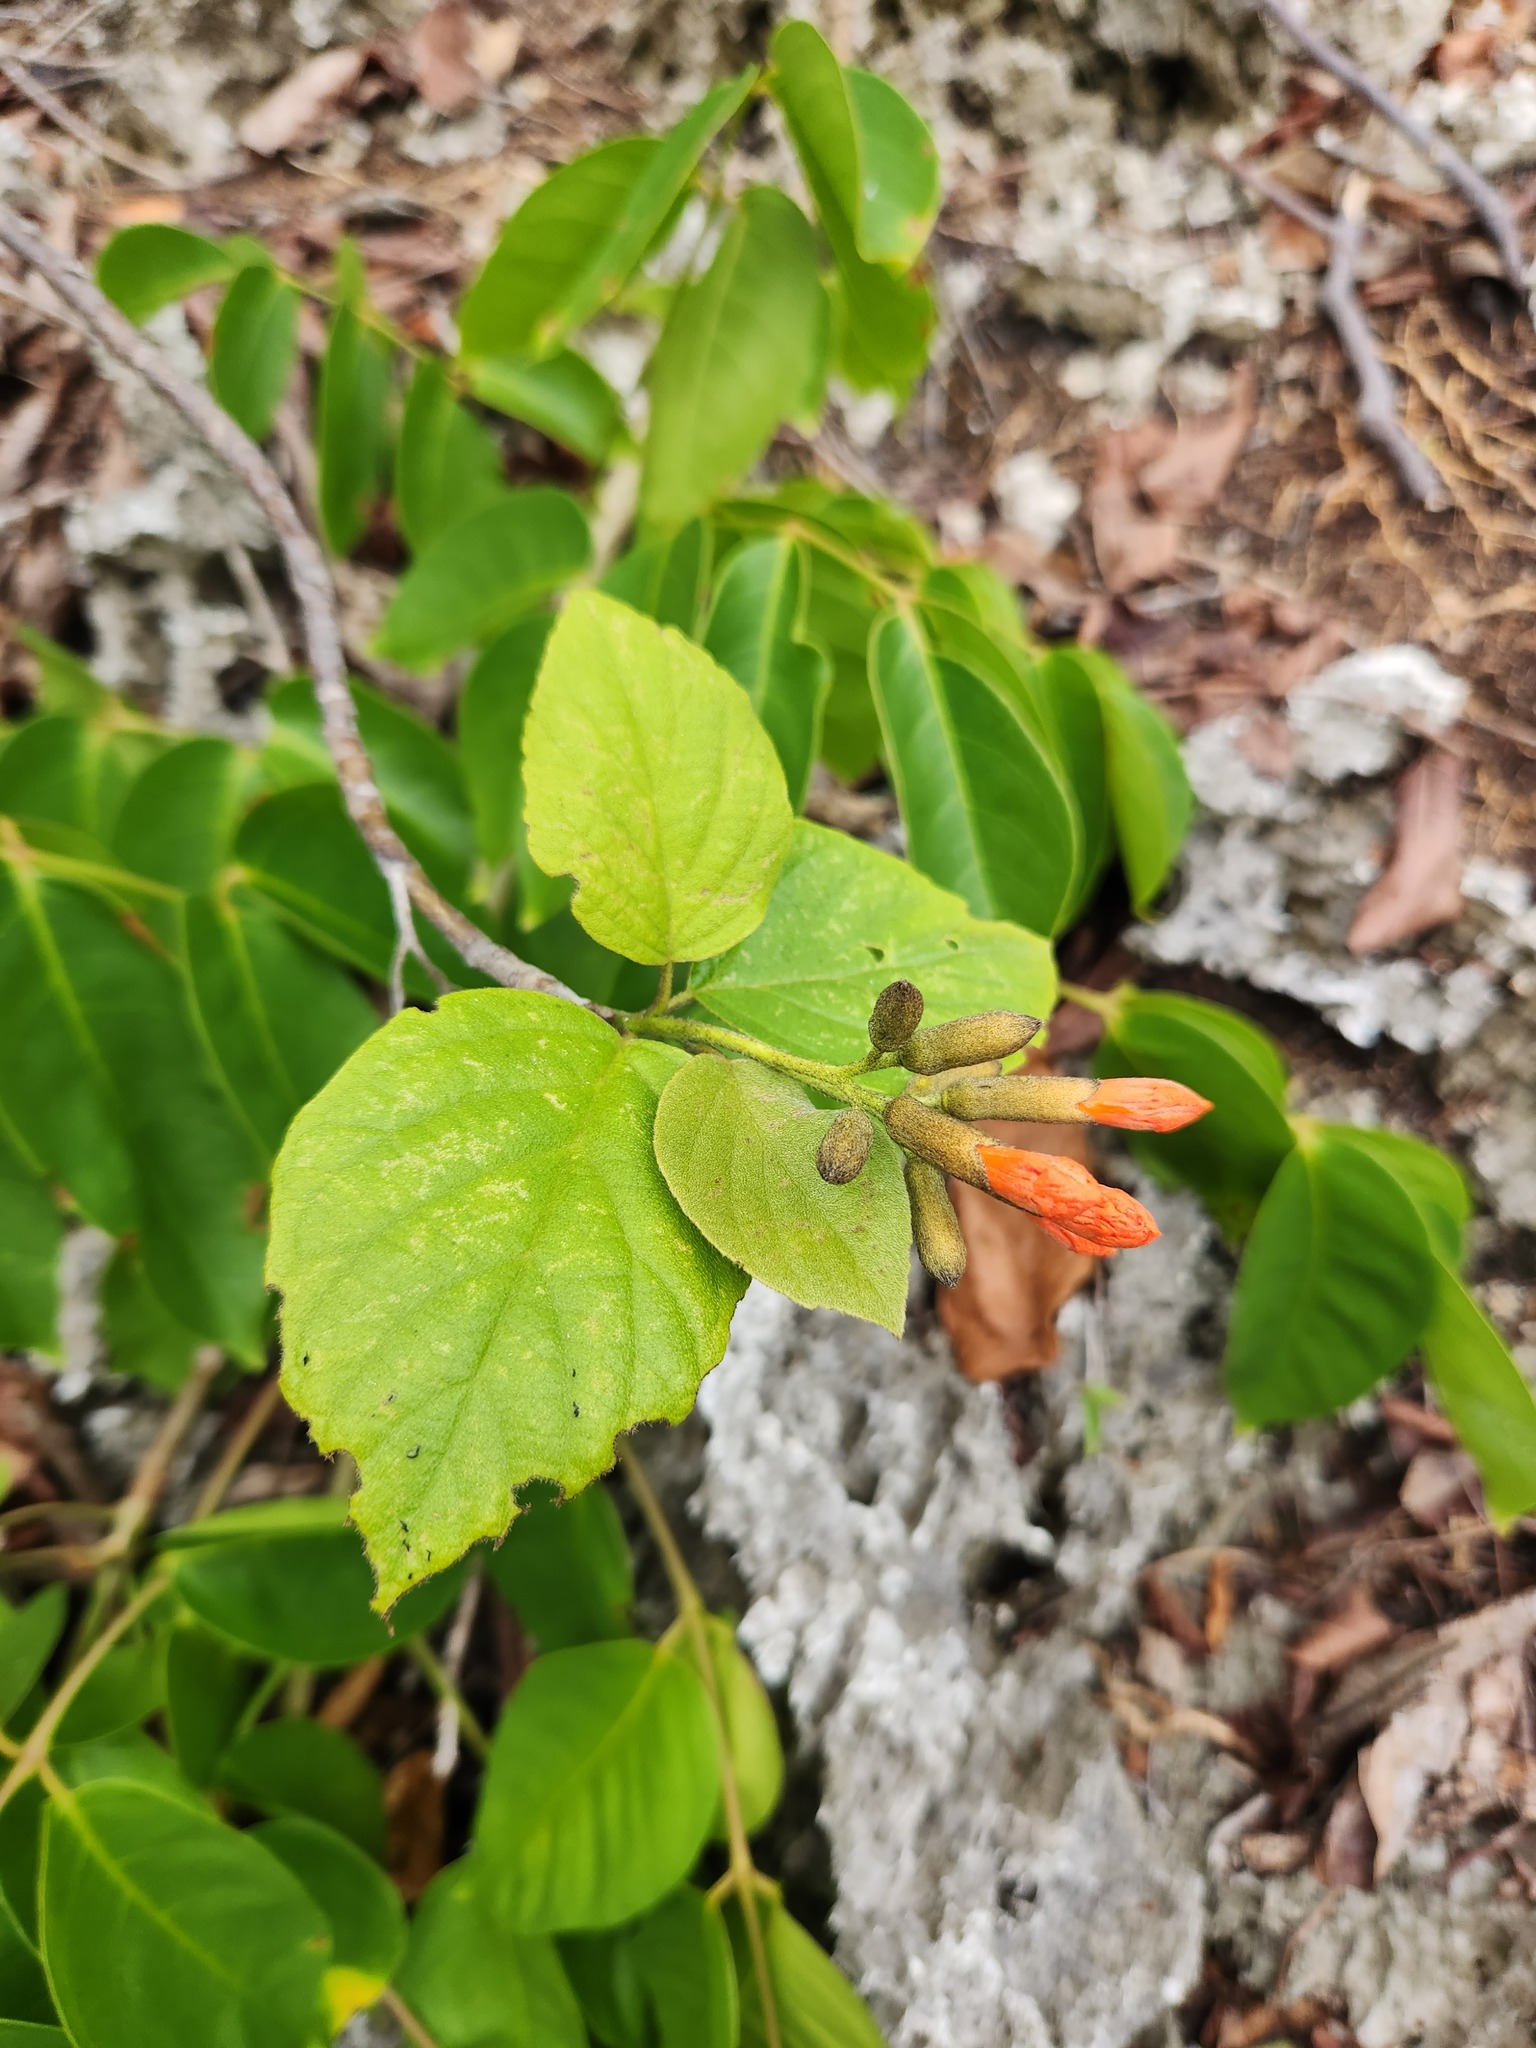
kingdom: Plantae
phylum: Tracheophyta
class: Magnoliopsida
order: Boraginales
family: Cordiaceae
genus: Cordia
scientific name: Cordia sebestena
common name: Largeleaf geigertree
